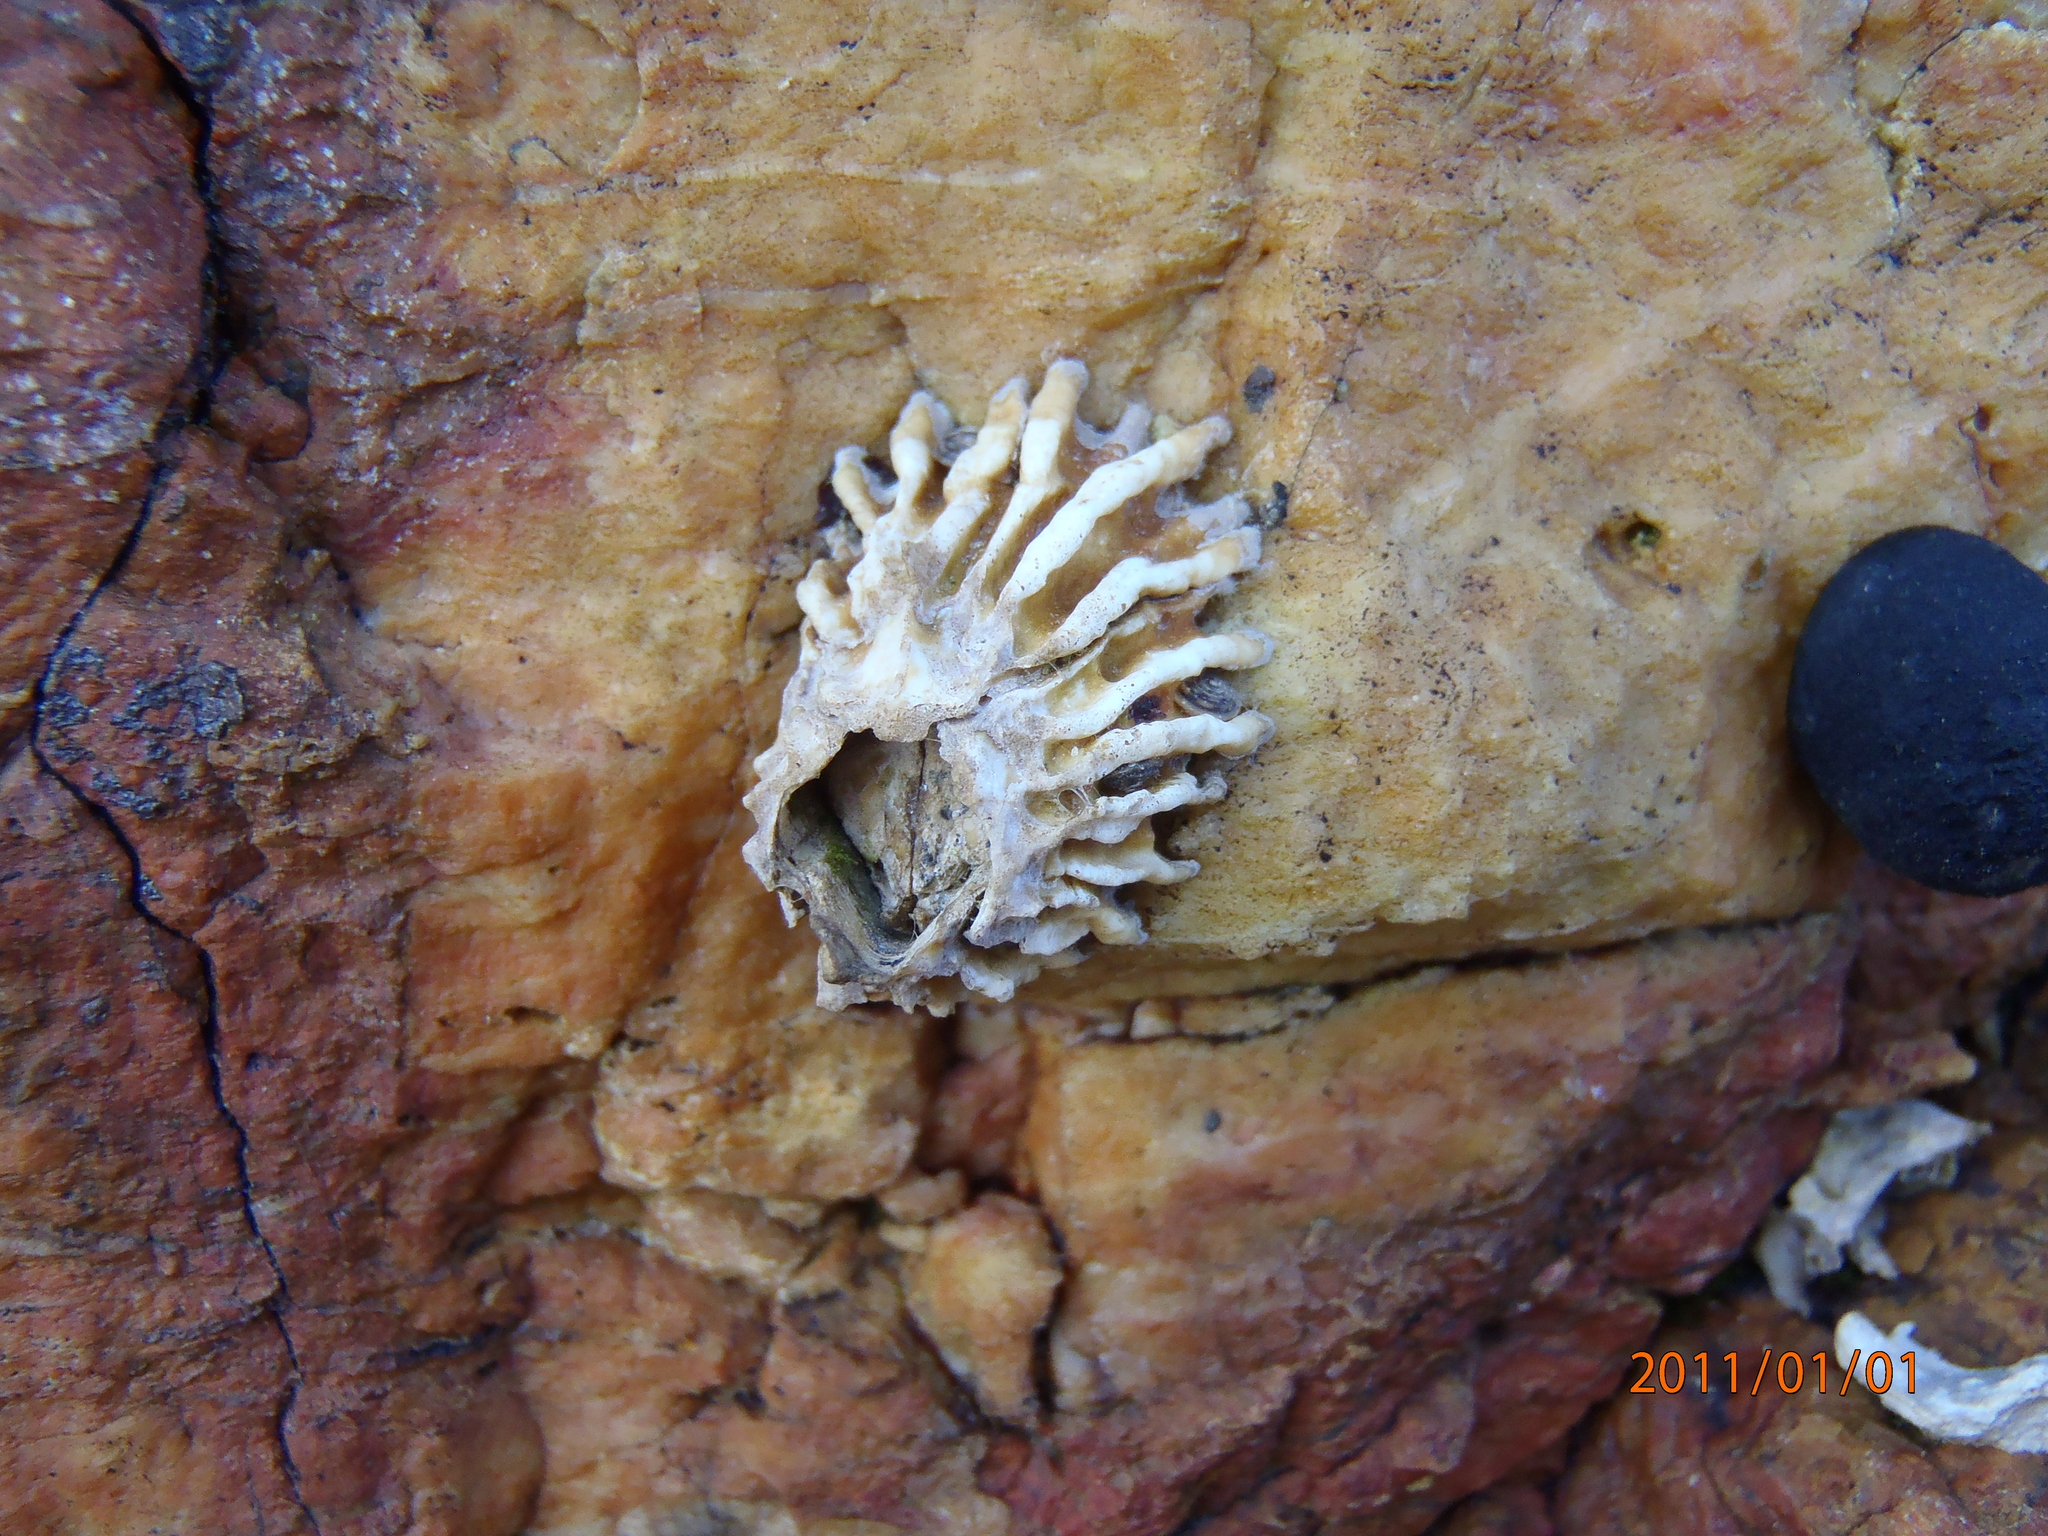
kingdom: Animalia
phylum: Arthropoda
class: Maxillopoda
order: Sessilia
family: Tetraclitidae
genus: Epopella
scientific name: Epopella plicata
